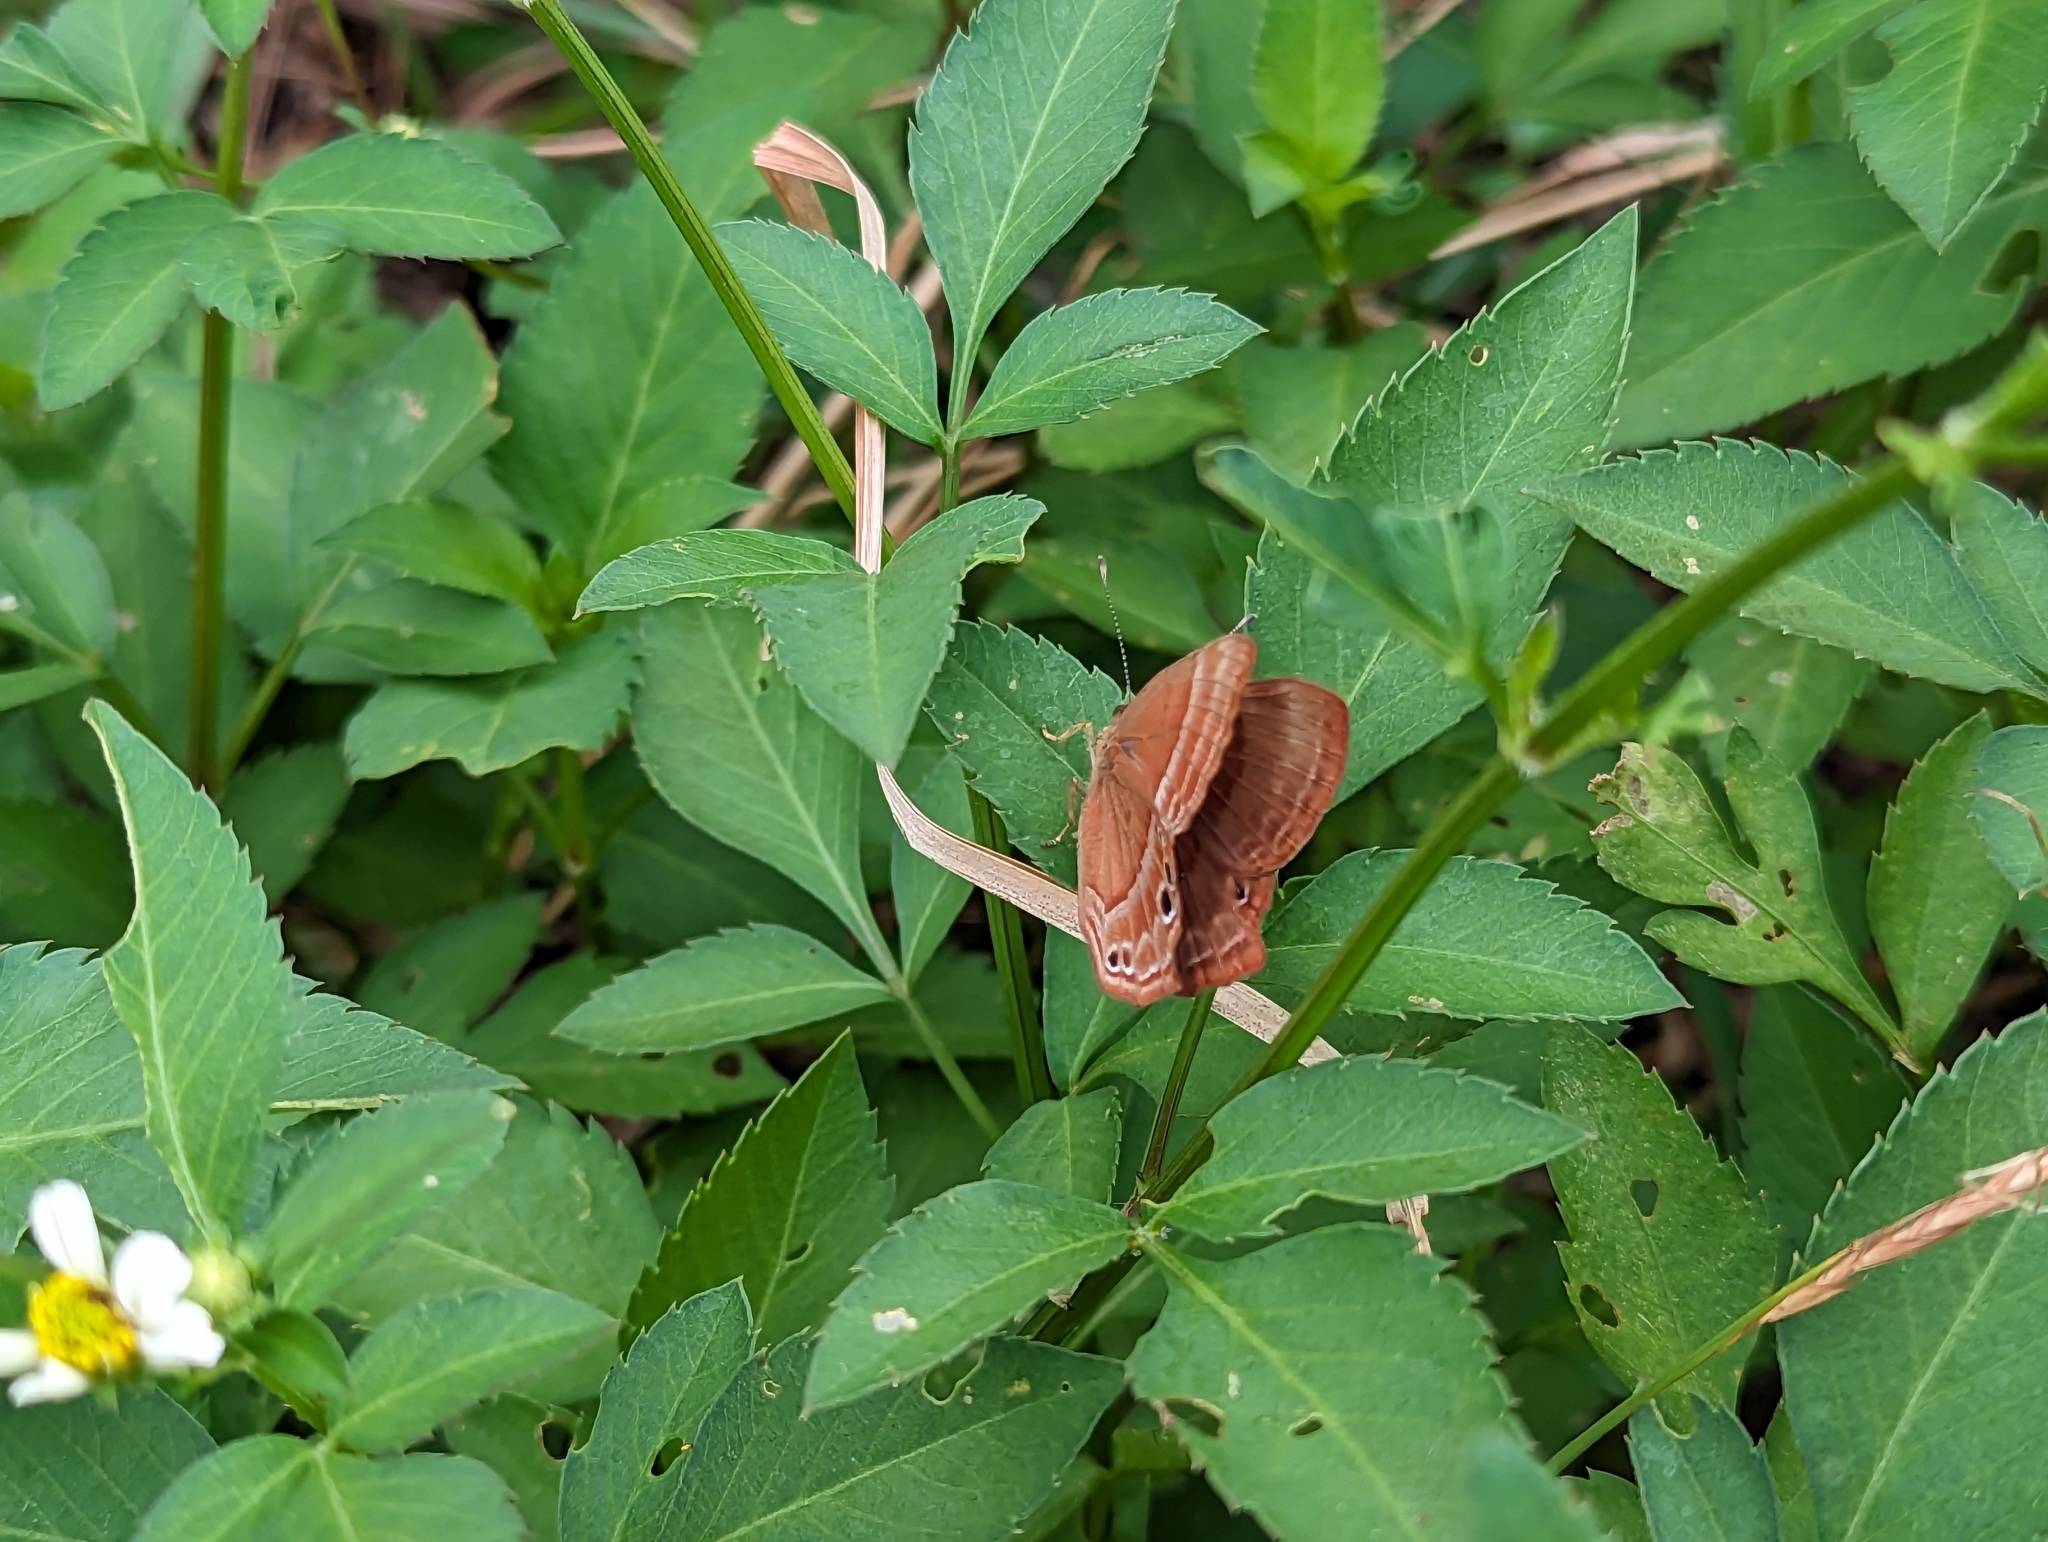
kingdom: Animalia
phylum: Arthropoda
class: Insecta
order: Lepidoptera
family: Lycaenidae
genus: Abisara
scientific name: Abisara echeria
